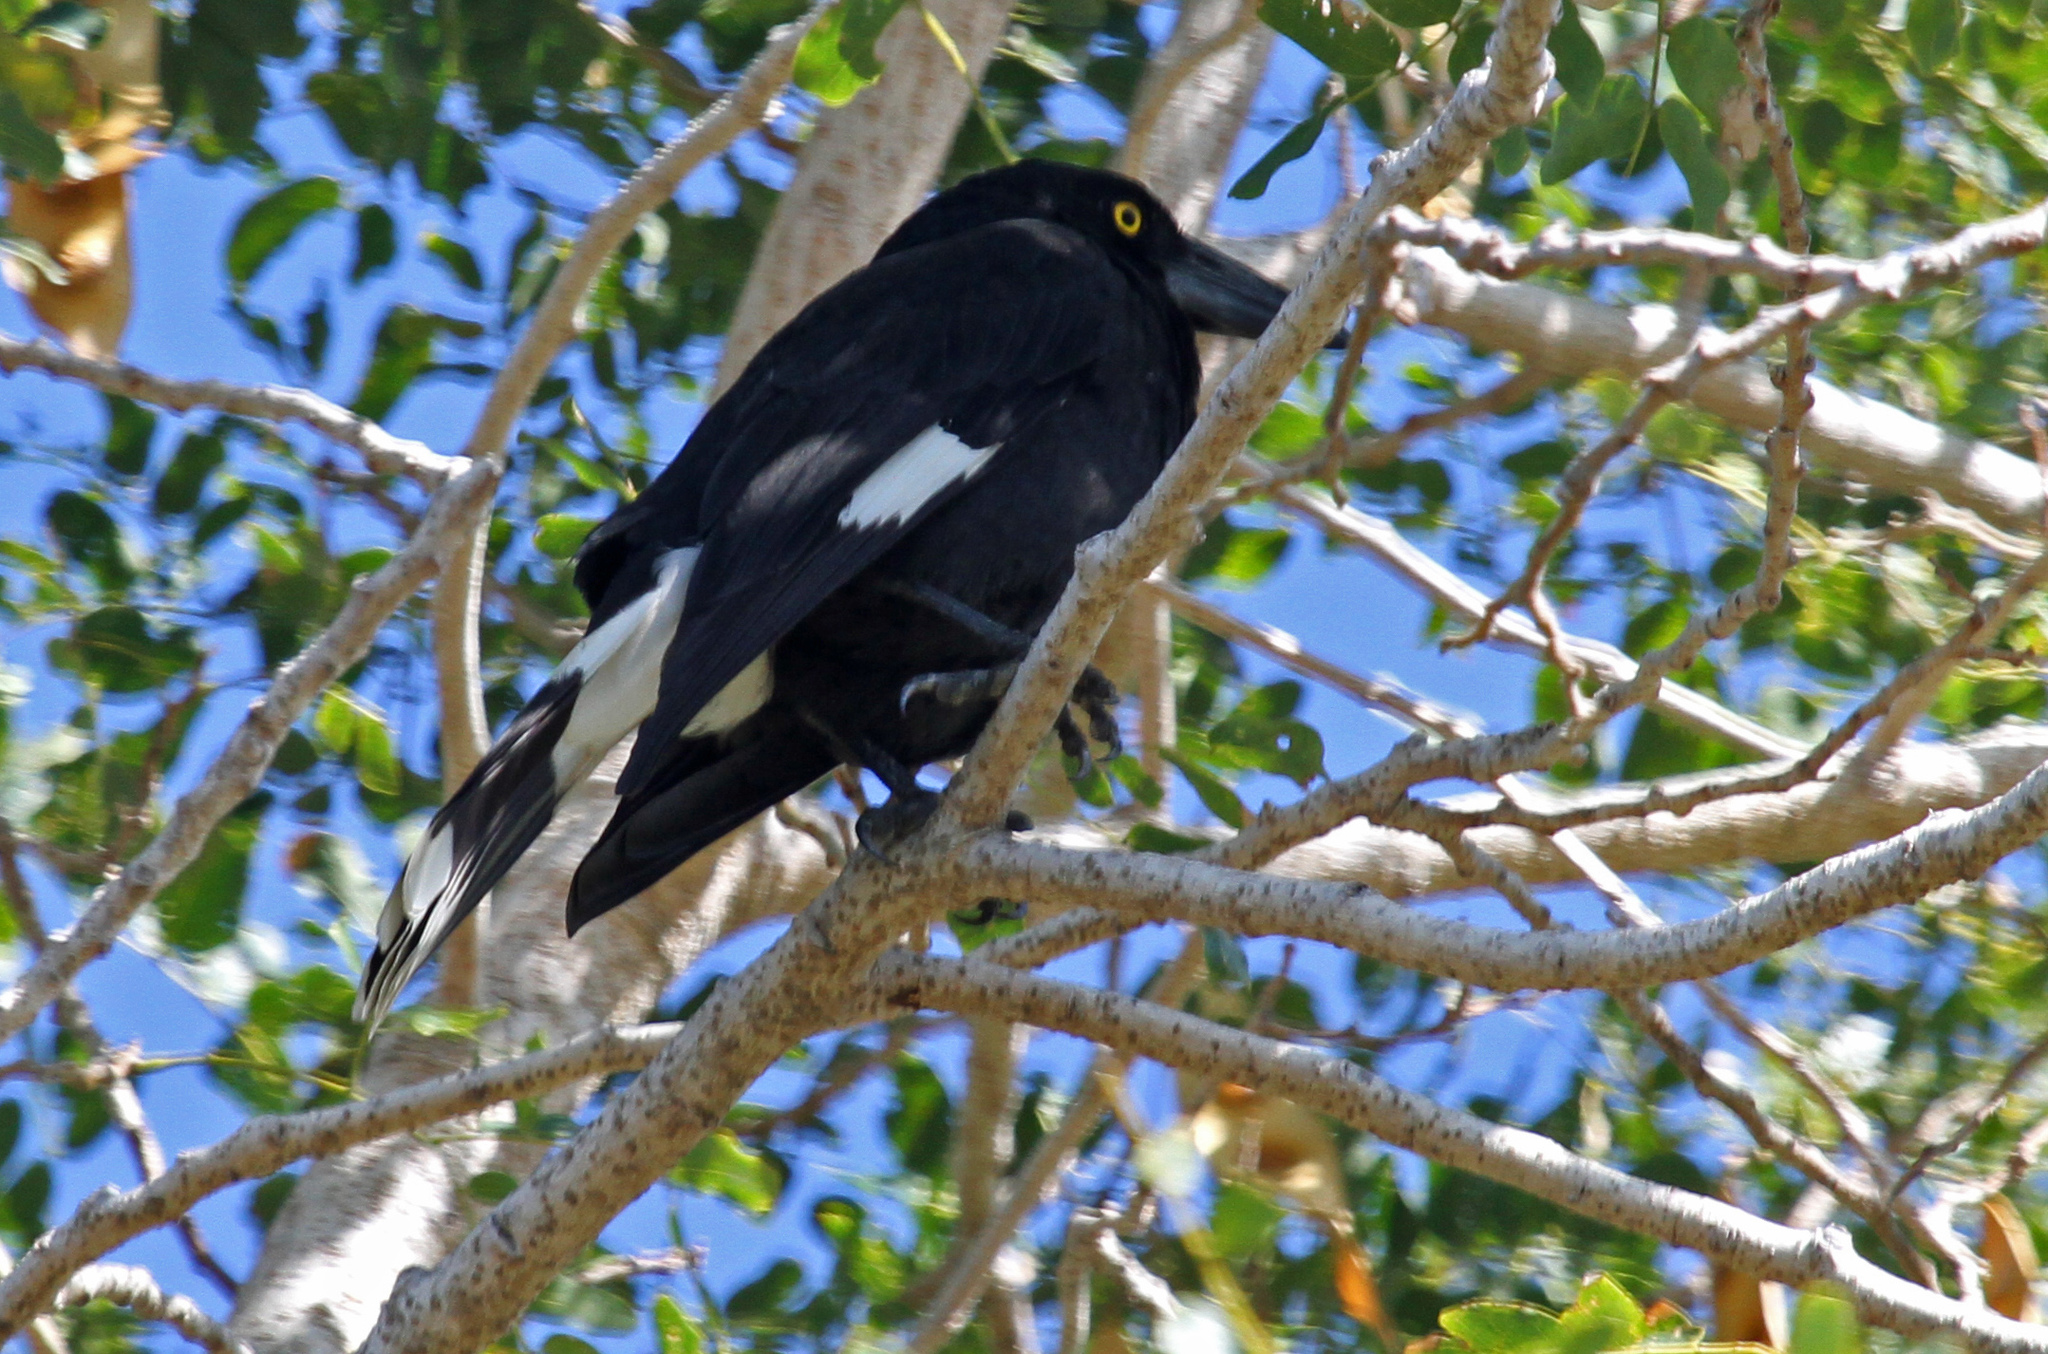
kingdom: Animalia
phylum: Chordata
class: Aves
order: Passeriformes
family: Cracticidae
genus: Strepera
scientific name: Strepera graculina
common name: Pied currawong
